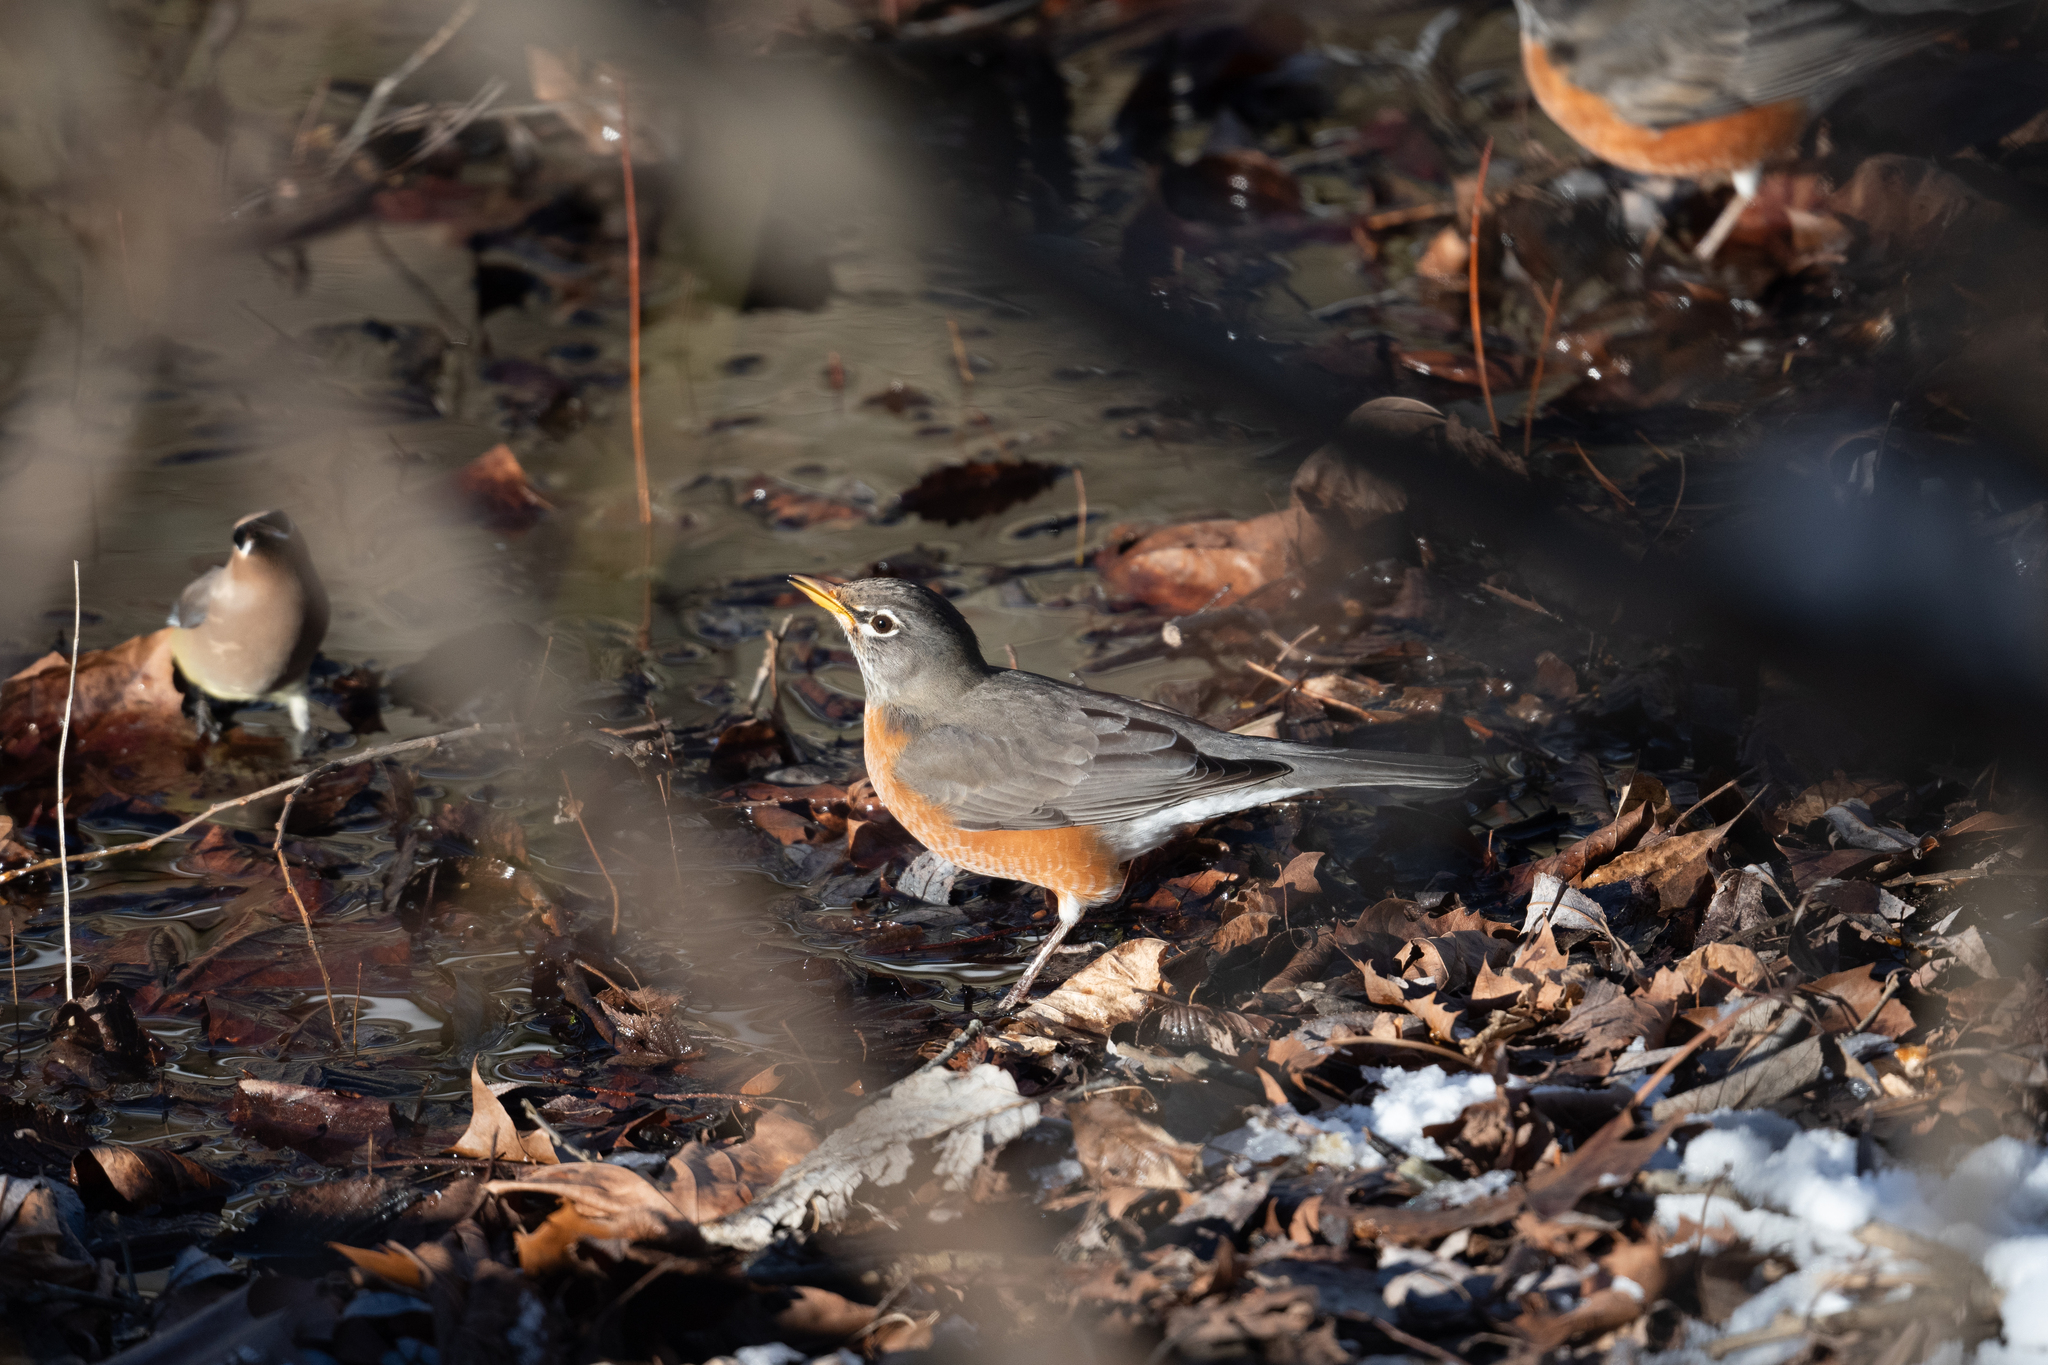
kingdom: Animalia
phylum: Chordata
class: Aves
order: Passeriformes
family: Turdidae
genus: Turdus
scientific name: Turdus migratorius
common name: American robin
